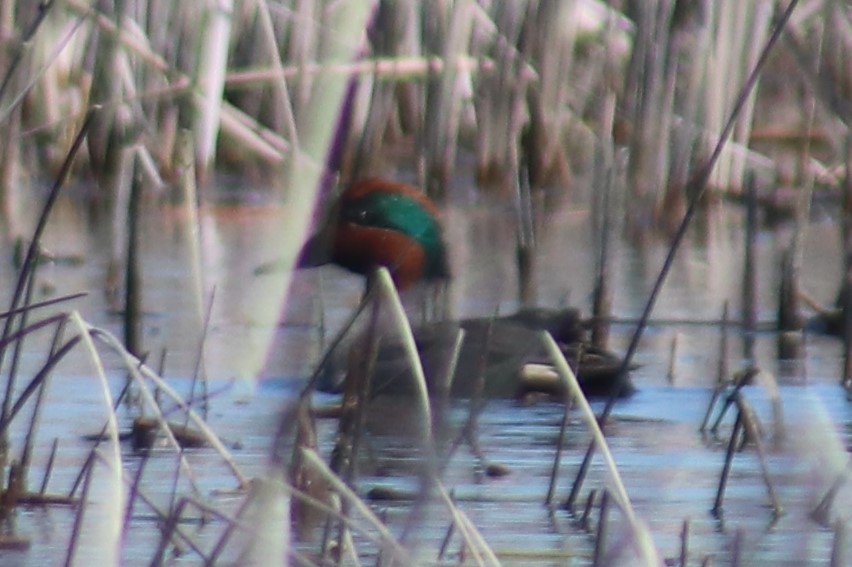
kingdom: Animalia
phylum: Chordata
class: Aves
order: Anseriformes
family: Anatidae
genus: Anas
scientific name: Anas crecca
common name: Eurasian teal
